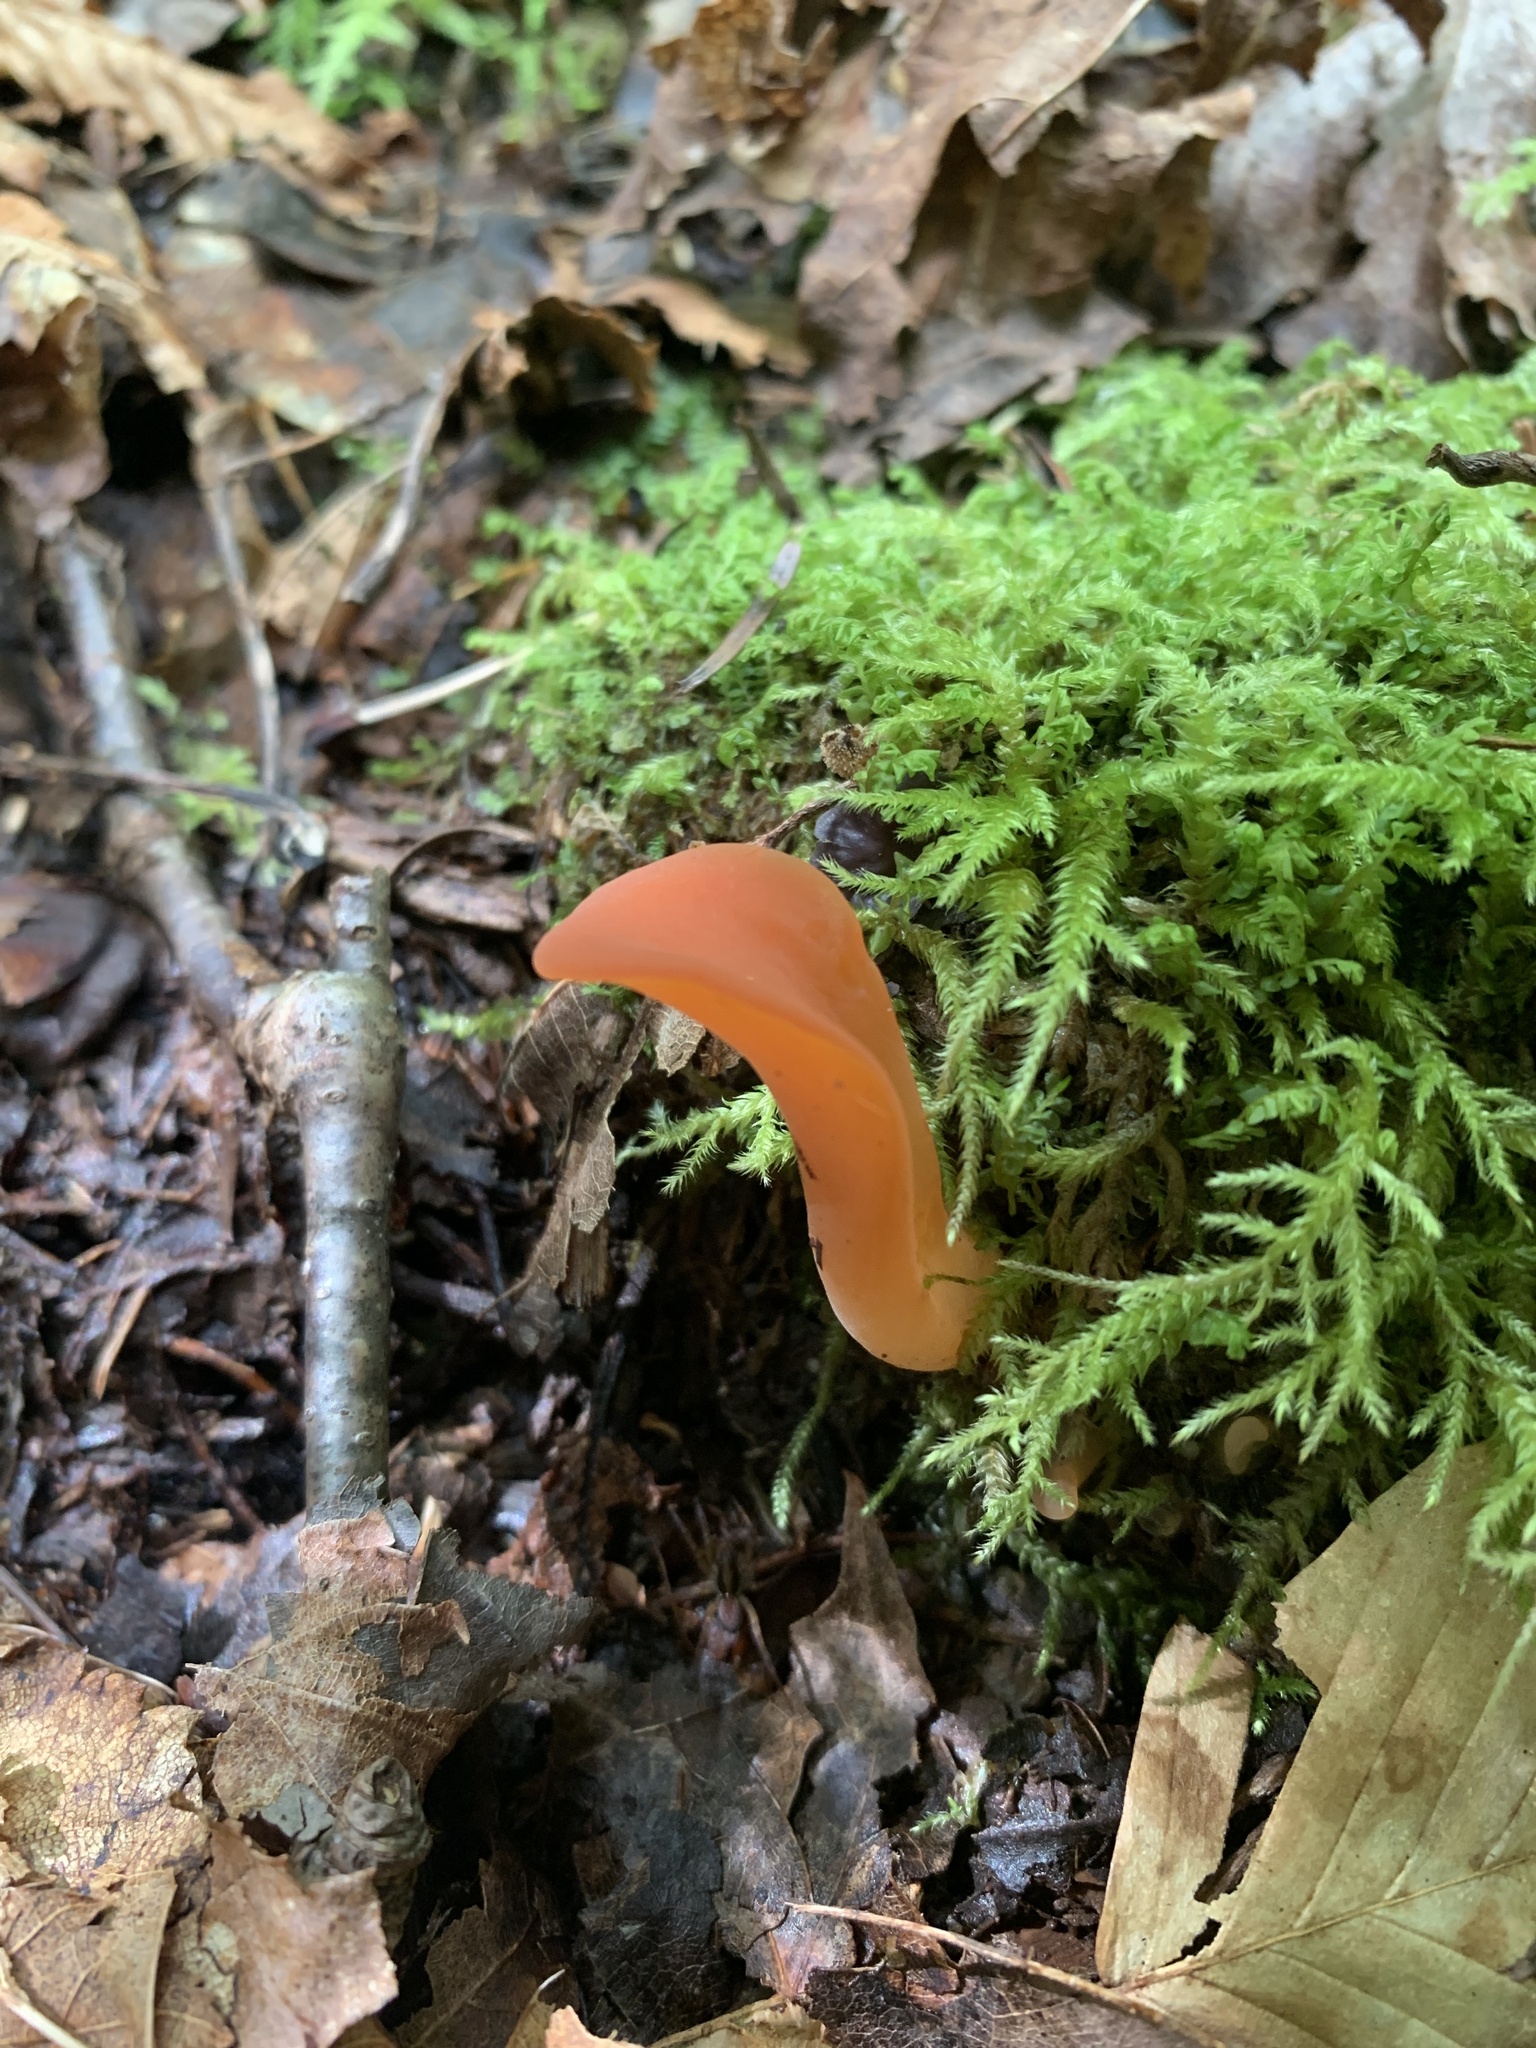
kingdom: Fungi
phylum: Basidiomycota
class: Agaricomycetes
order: Auriculariales
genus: Guepinia
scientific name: Guepinia helvelloides
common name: Salmon salad
